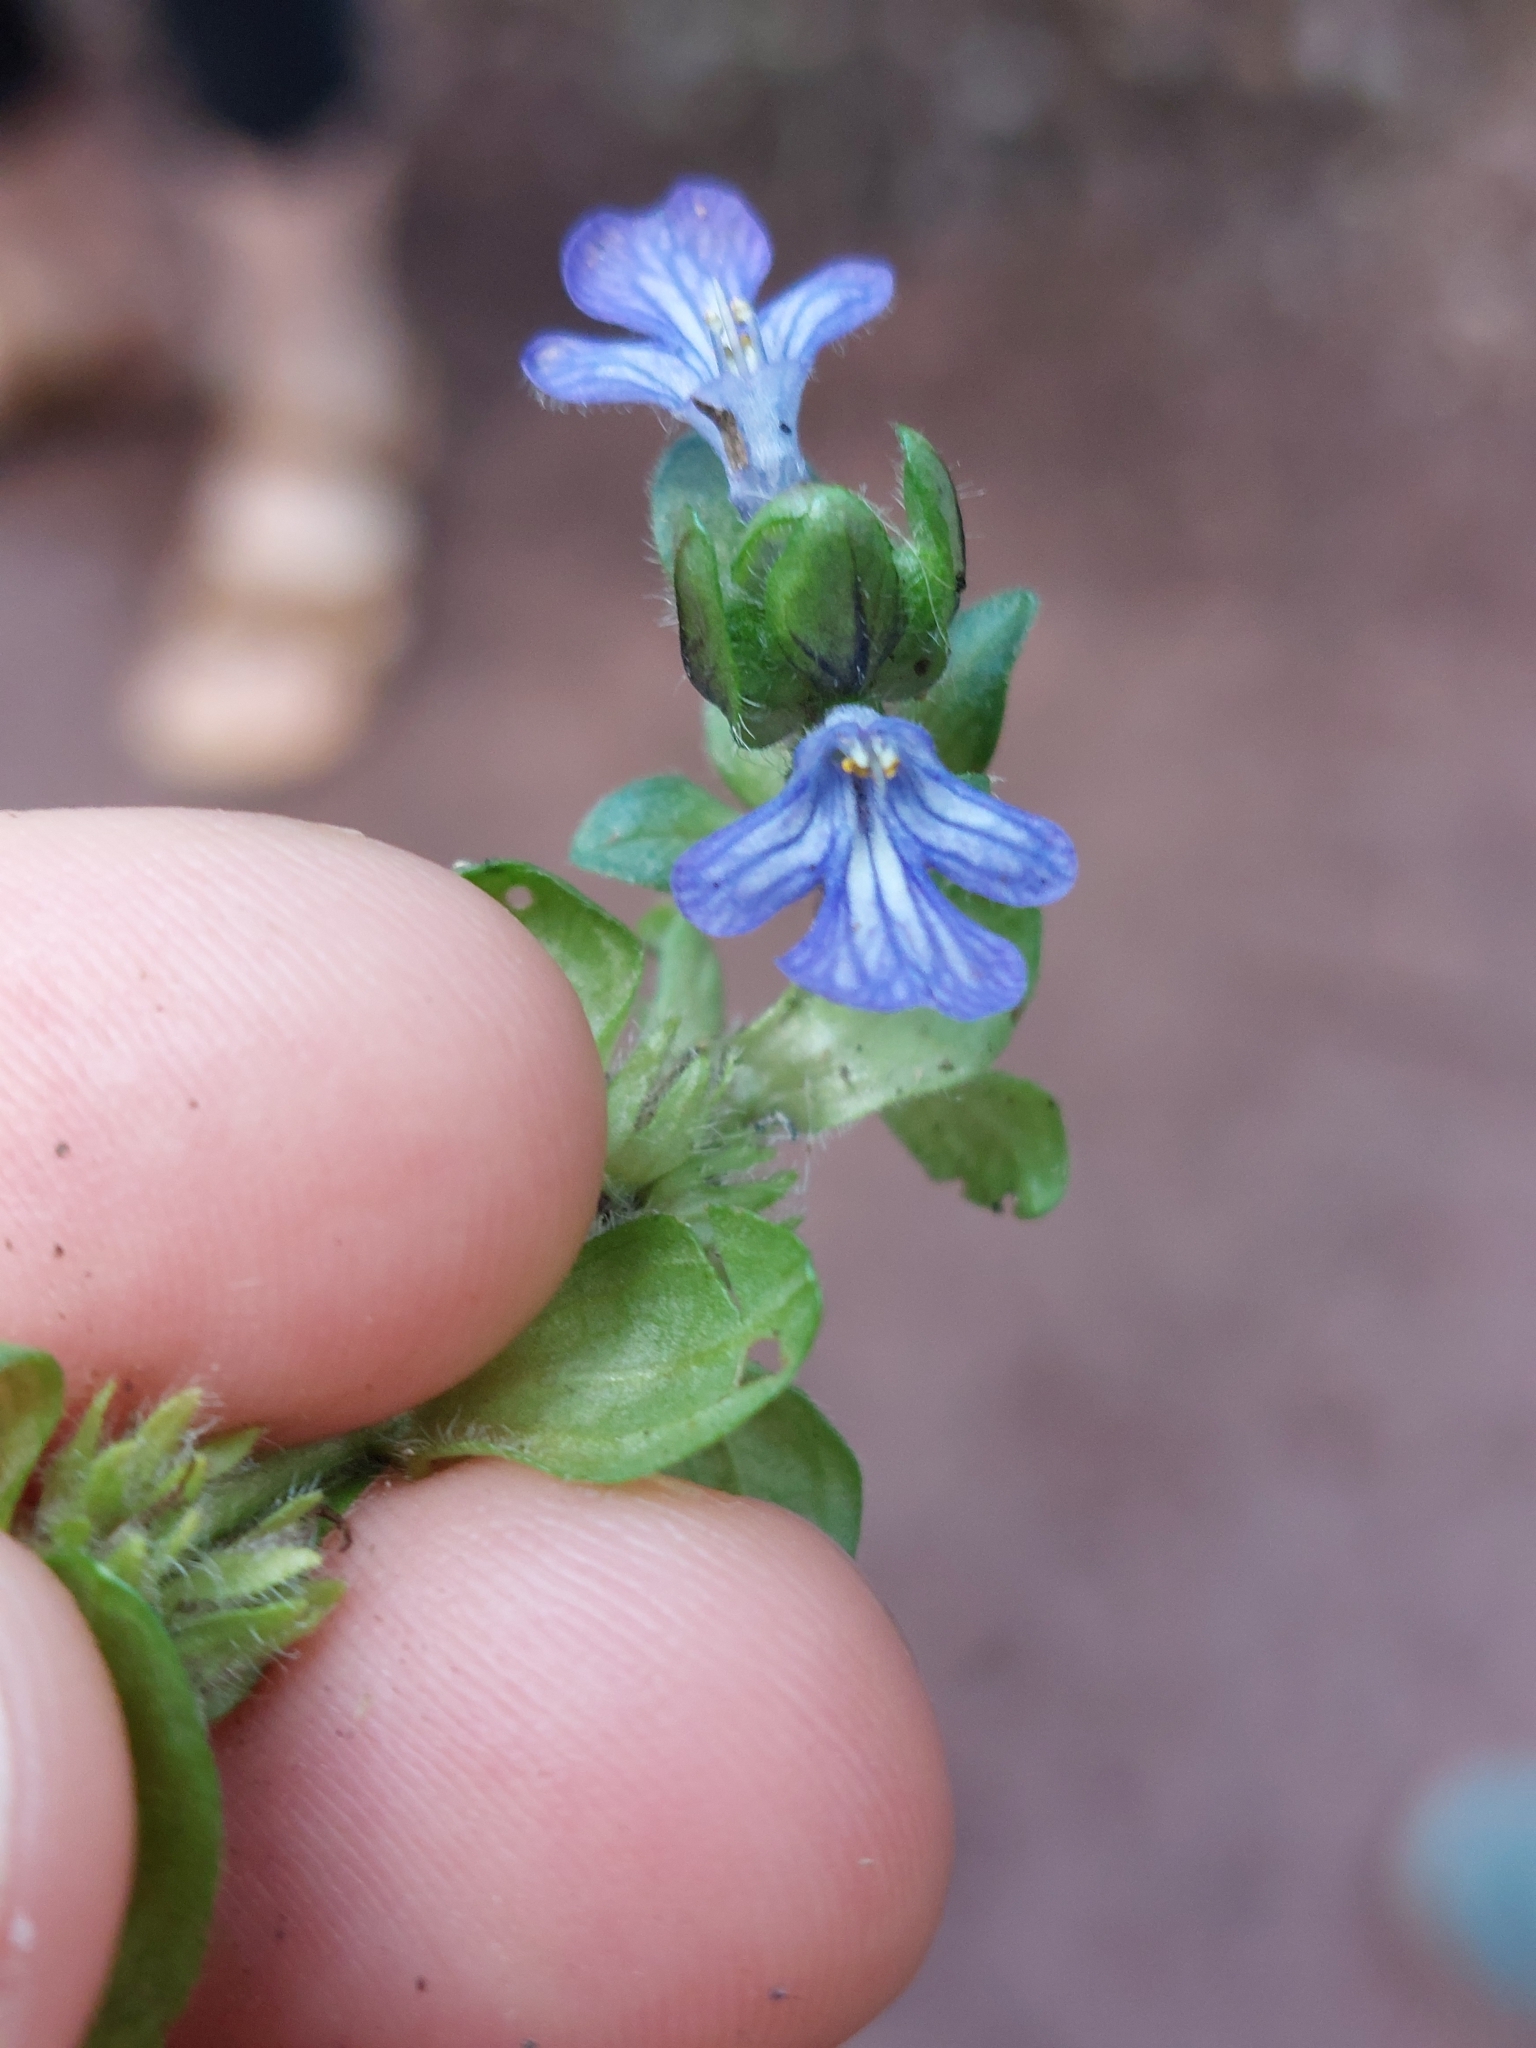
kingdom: Plantae
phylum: Tracheophyta
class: Magnoliopsida
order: Lamiales
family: Lamiaceae
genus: Ajuga
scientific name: Ajuga reptans
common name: Bugle
